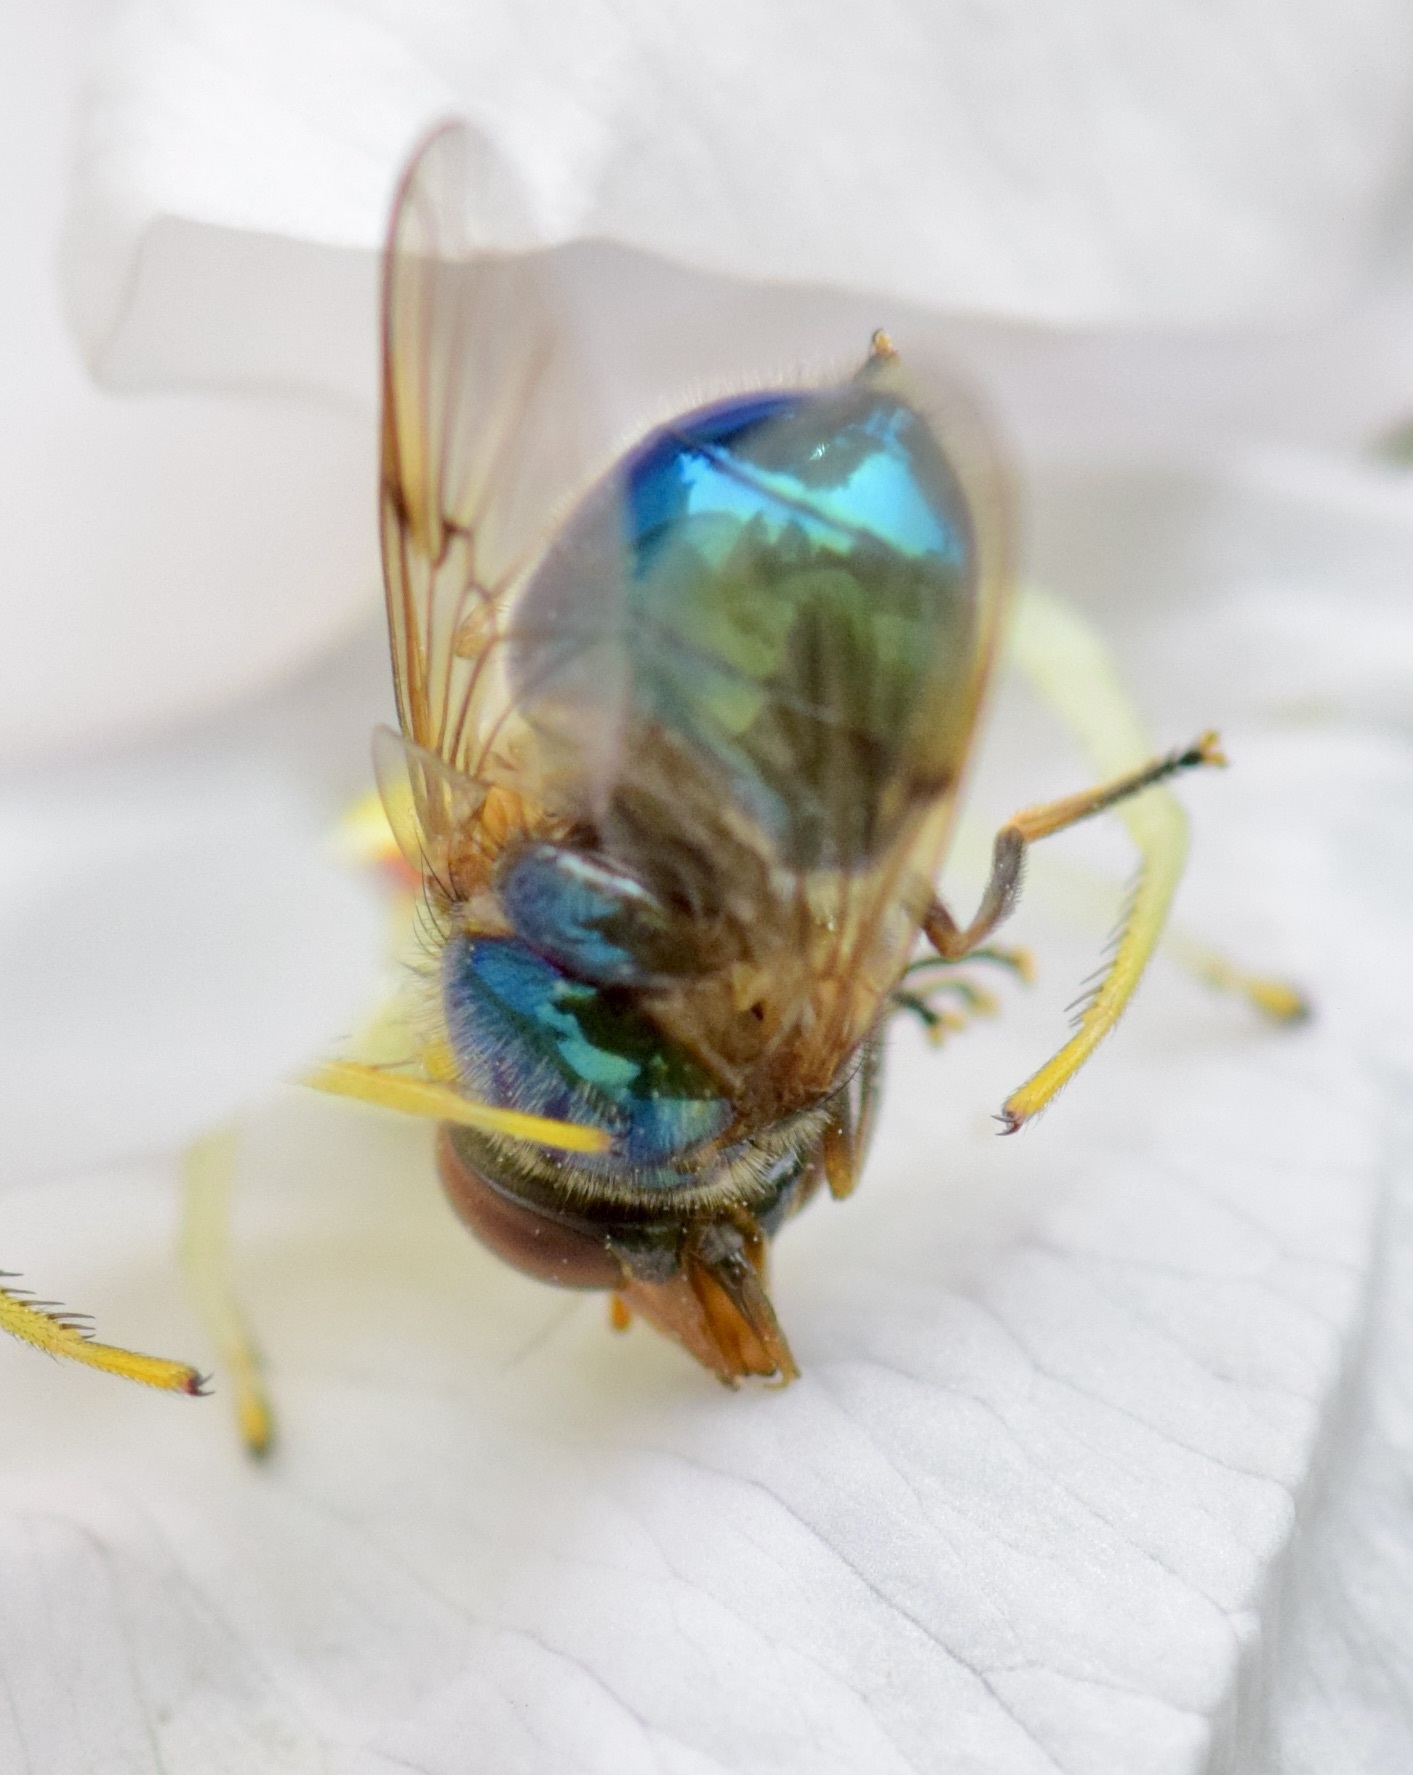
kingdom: Animalia
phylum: Arthropoda
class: Insecta
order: Diptera
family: Syrphidae
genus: Copestylum
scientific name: Copestylum vesicularium
